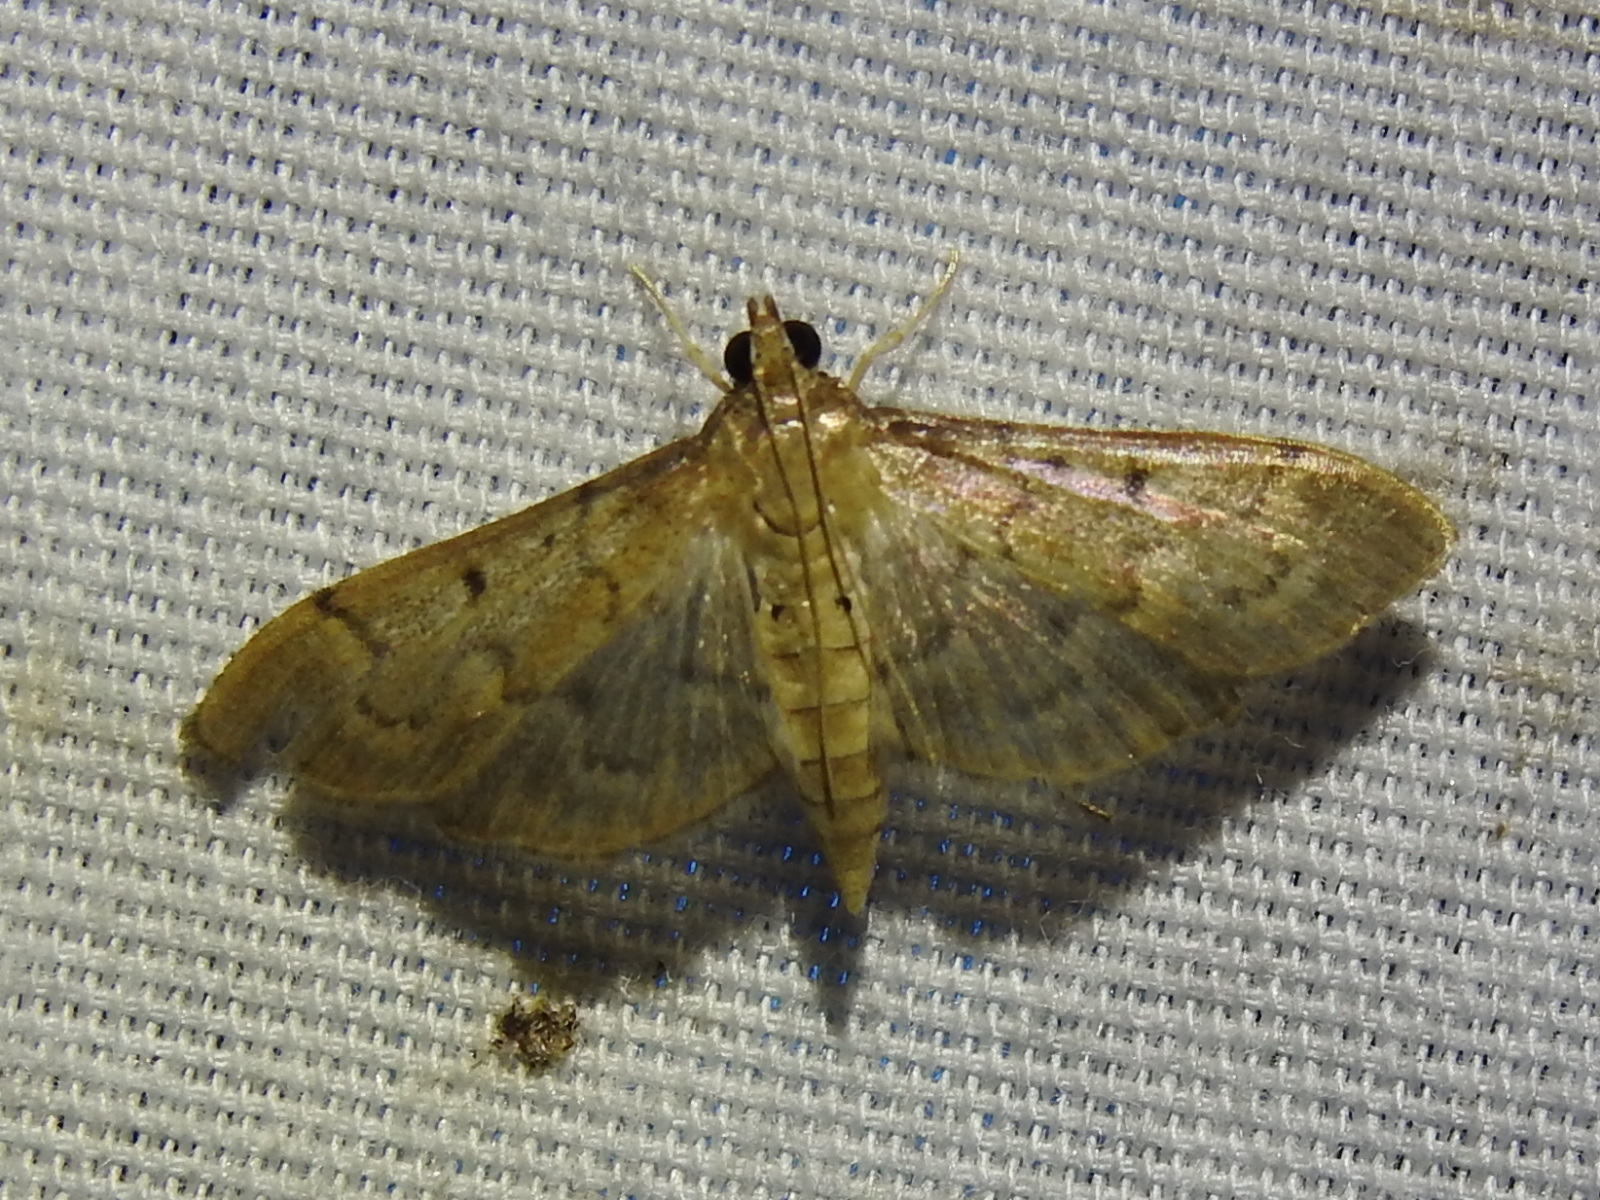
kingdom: Animalia
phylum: Arthropoda
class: Insecta
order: Lepidoptera
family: Crambidae
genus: Herpetogramma
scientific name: Herpetogramma bipunctalis
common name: Southern beet webworm
